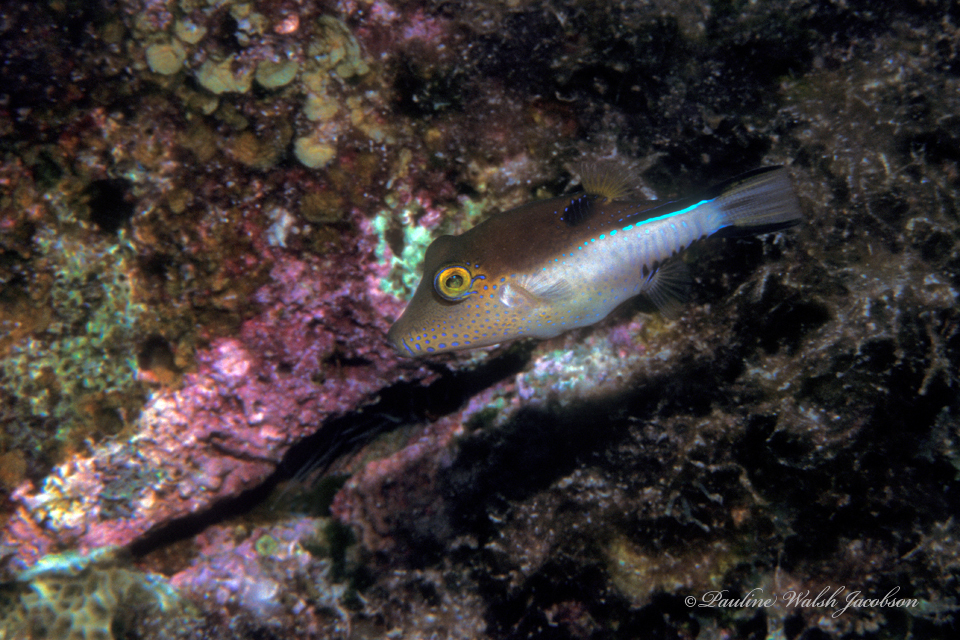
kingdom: Animalia
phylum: Chordata
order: Tetraodontiformes
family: Tetraodontidae
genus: Canthigaster
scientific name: Canthigaster rostrata
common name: Caribbean sharpnose-puffer
